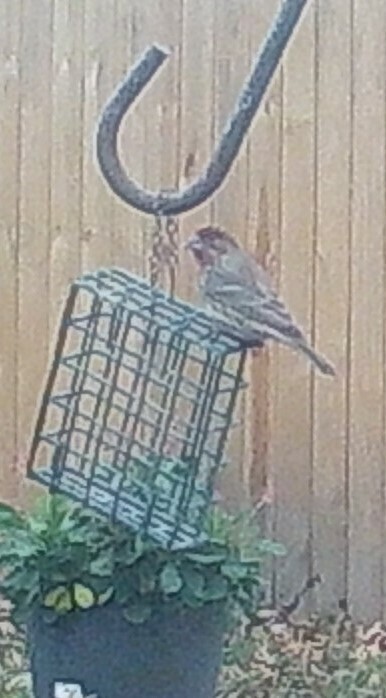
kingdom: Animalia
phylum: Chordata
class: Aves
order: Passeriformes
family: Fringillidae
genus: Haemorhous
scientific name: Haemorhous mexicanus
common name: House finch
